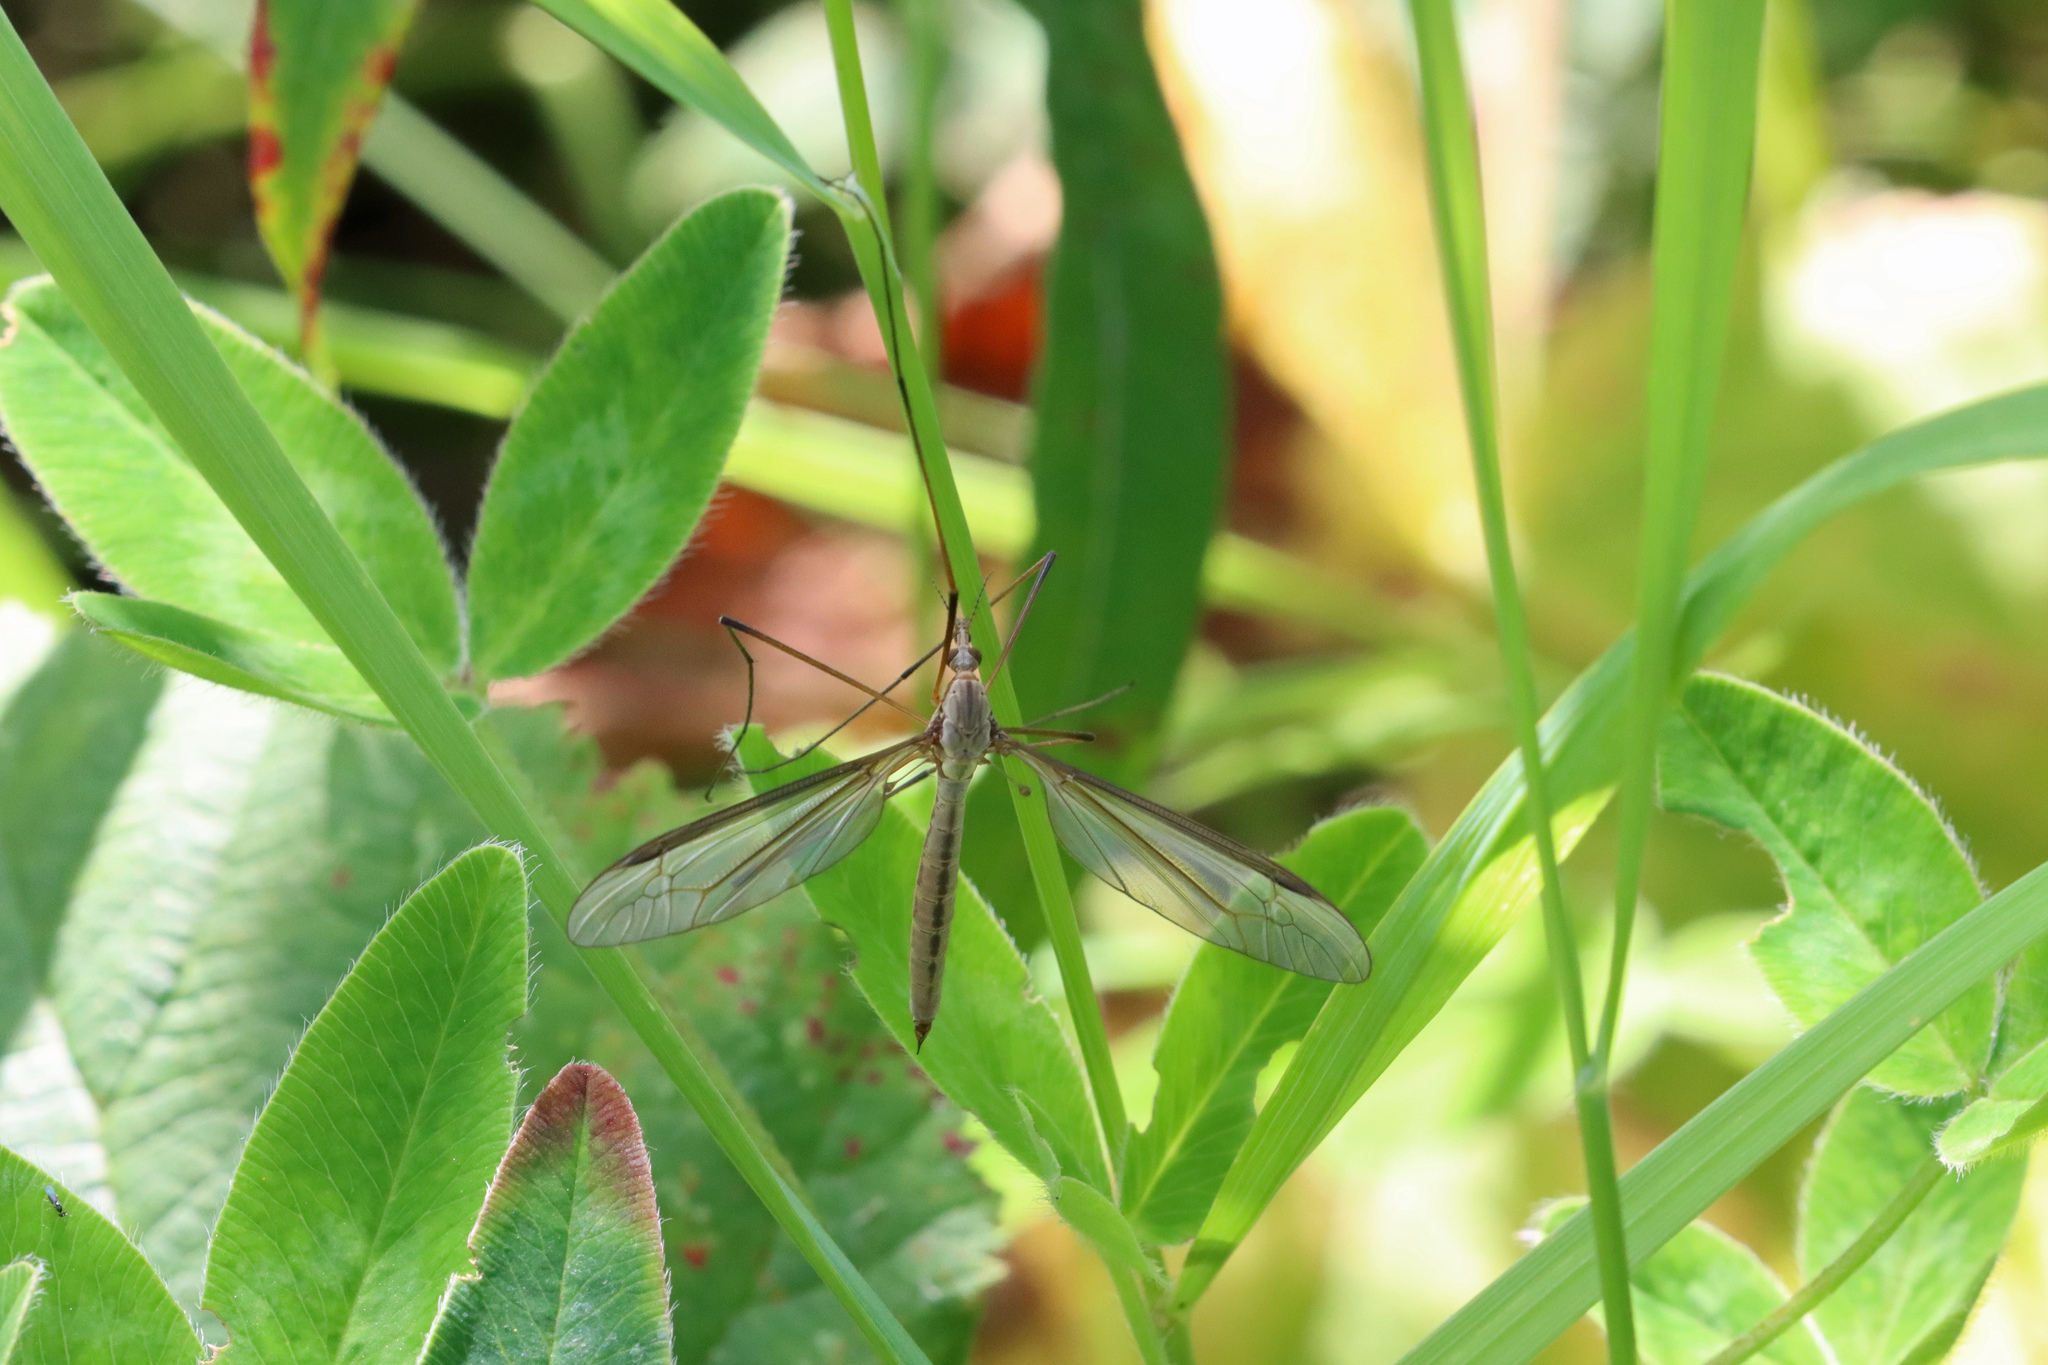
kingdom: Animalia
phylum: Arthropoda
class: Insecta
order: Diptera
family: Tipulidae
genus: Tipula
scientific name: Tipula oleracea
